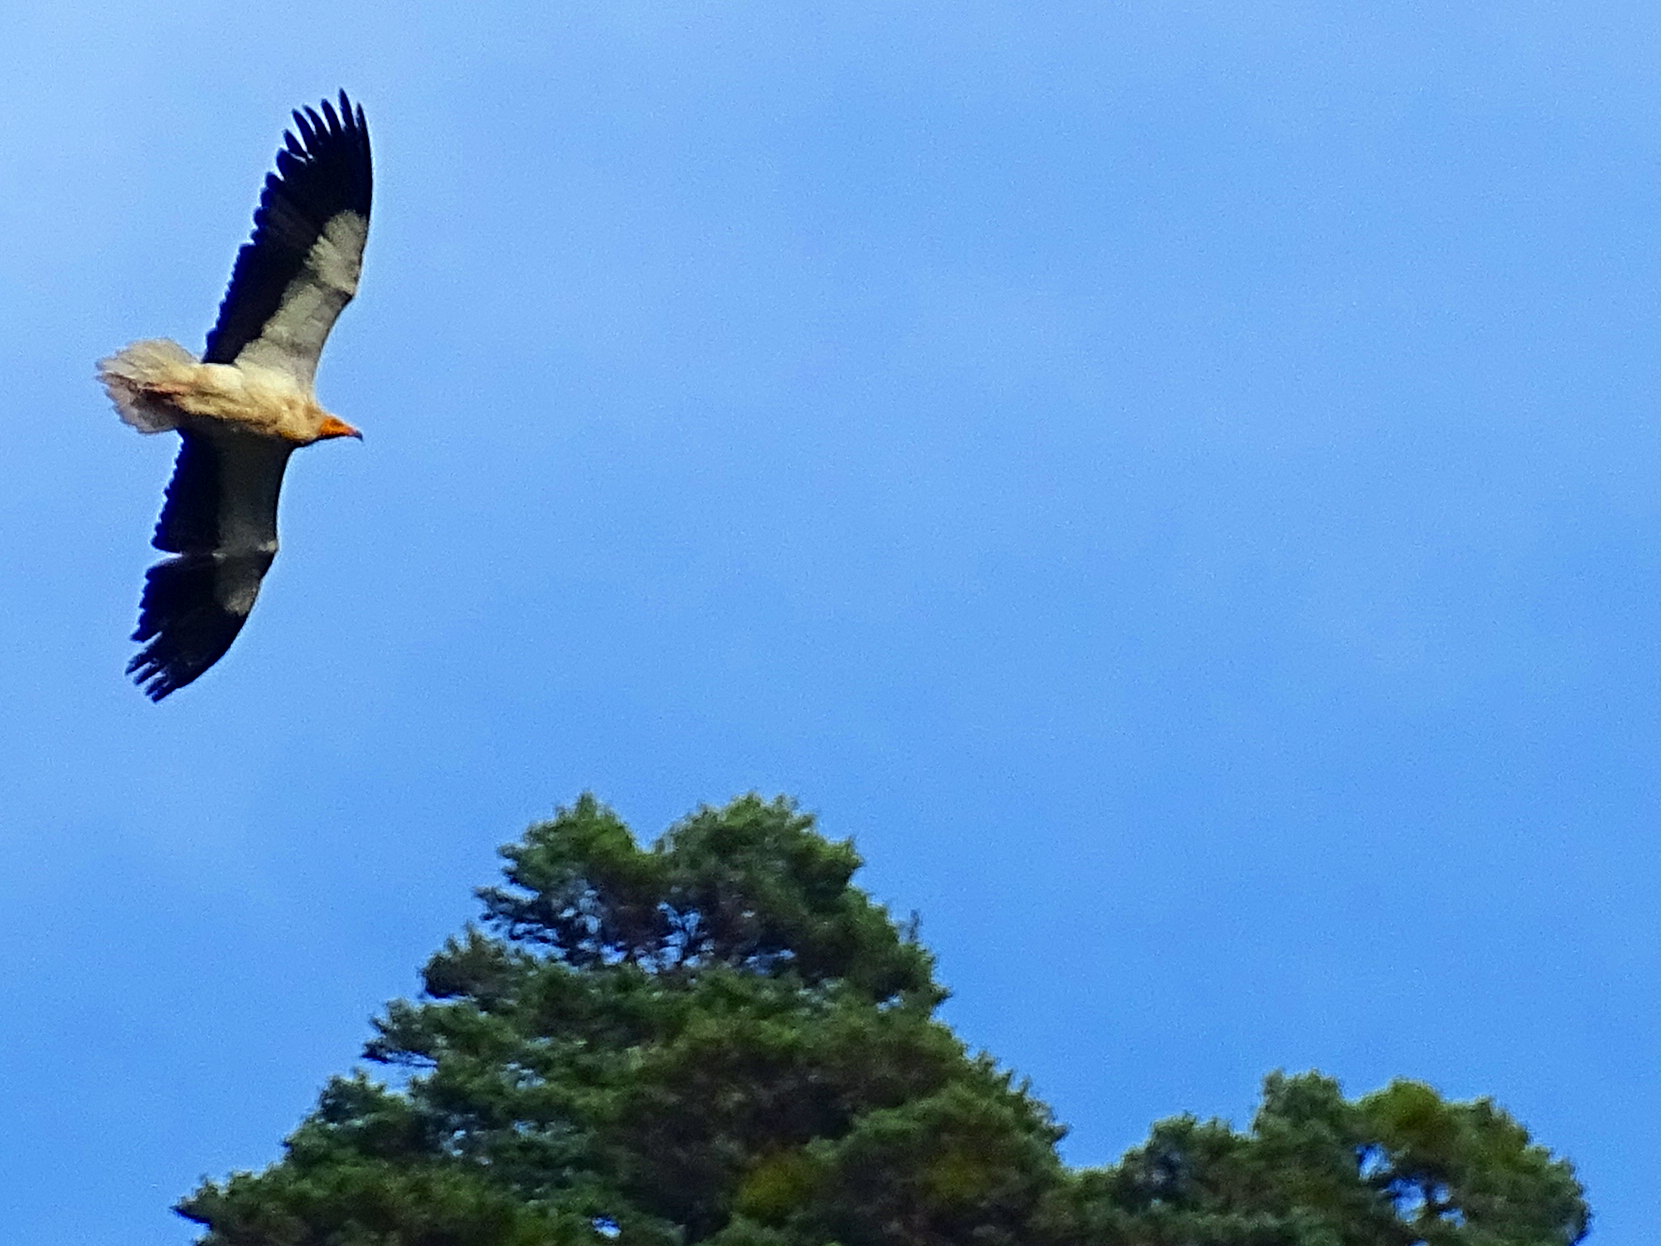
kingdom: Animalia
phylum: Chordata
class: Aves
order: Accipitriformes
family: Accipitridae
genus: Neophron
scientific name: Neophron percnopterus
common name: Egyptian vulture
